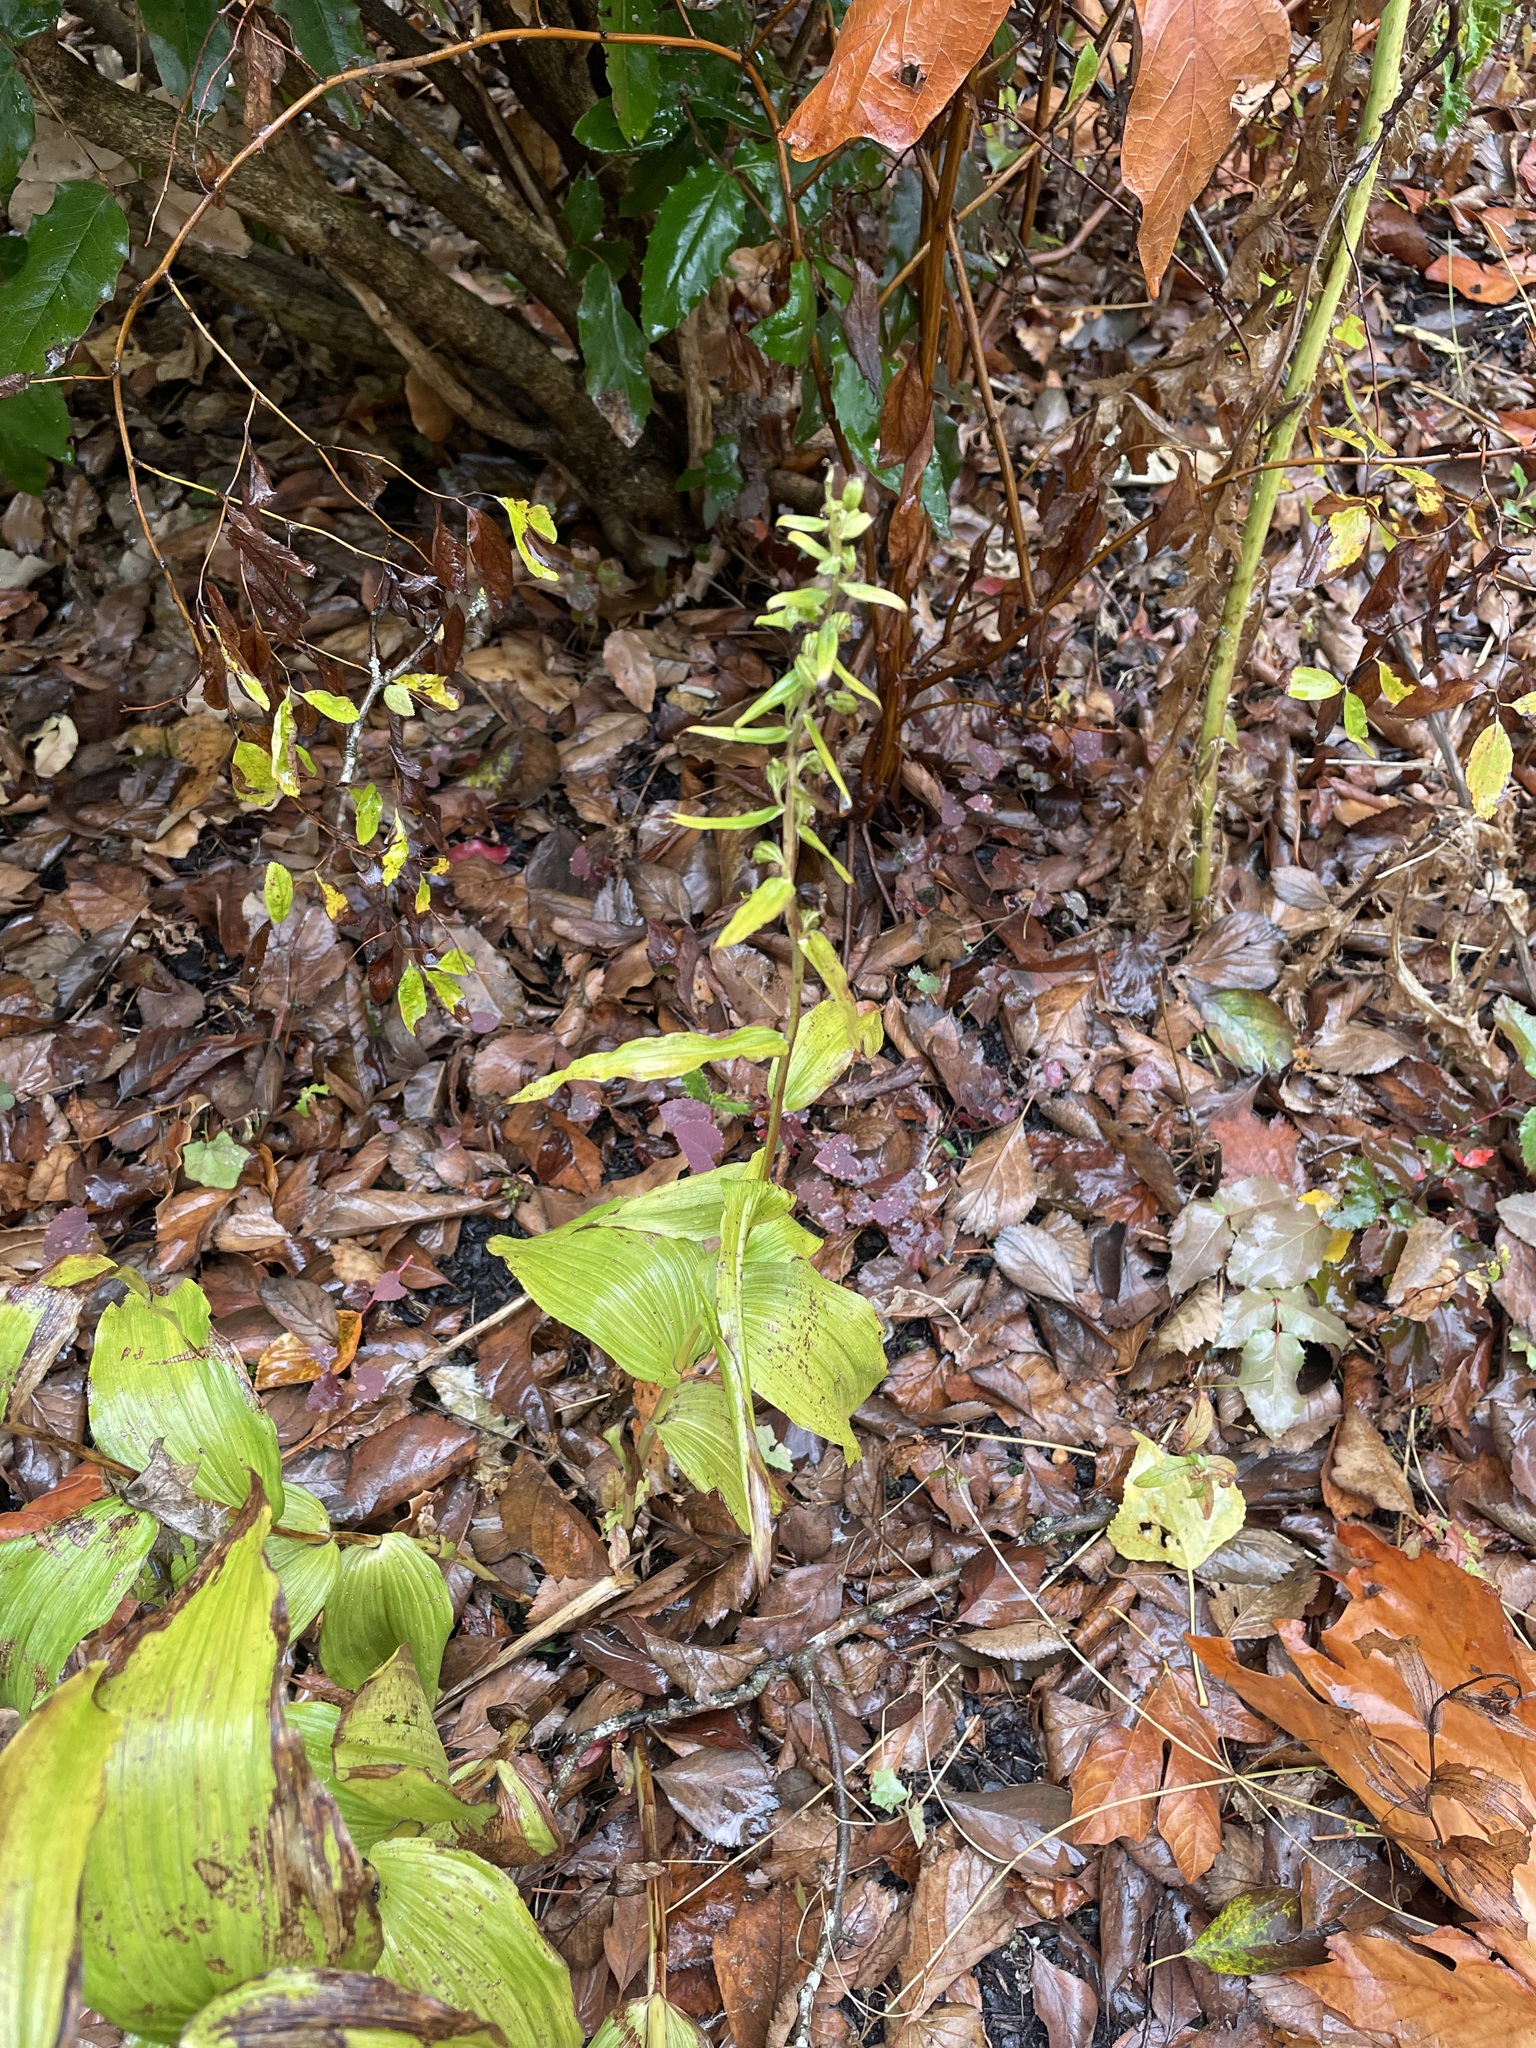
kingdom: Plantae
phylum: Tracheophyta
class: Liliopsida
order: Asparagales
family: Orchidaceae
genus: Epipactis
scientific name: Epipactis helleborine
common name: Broad-leaved helleborine
